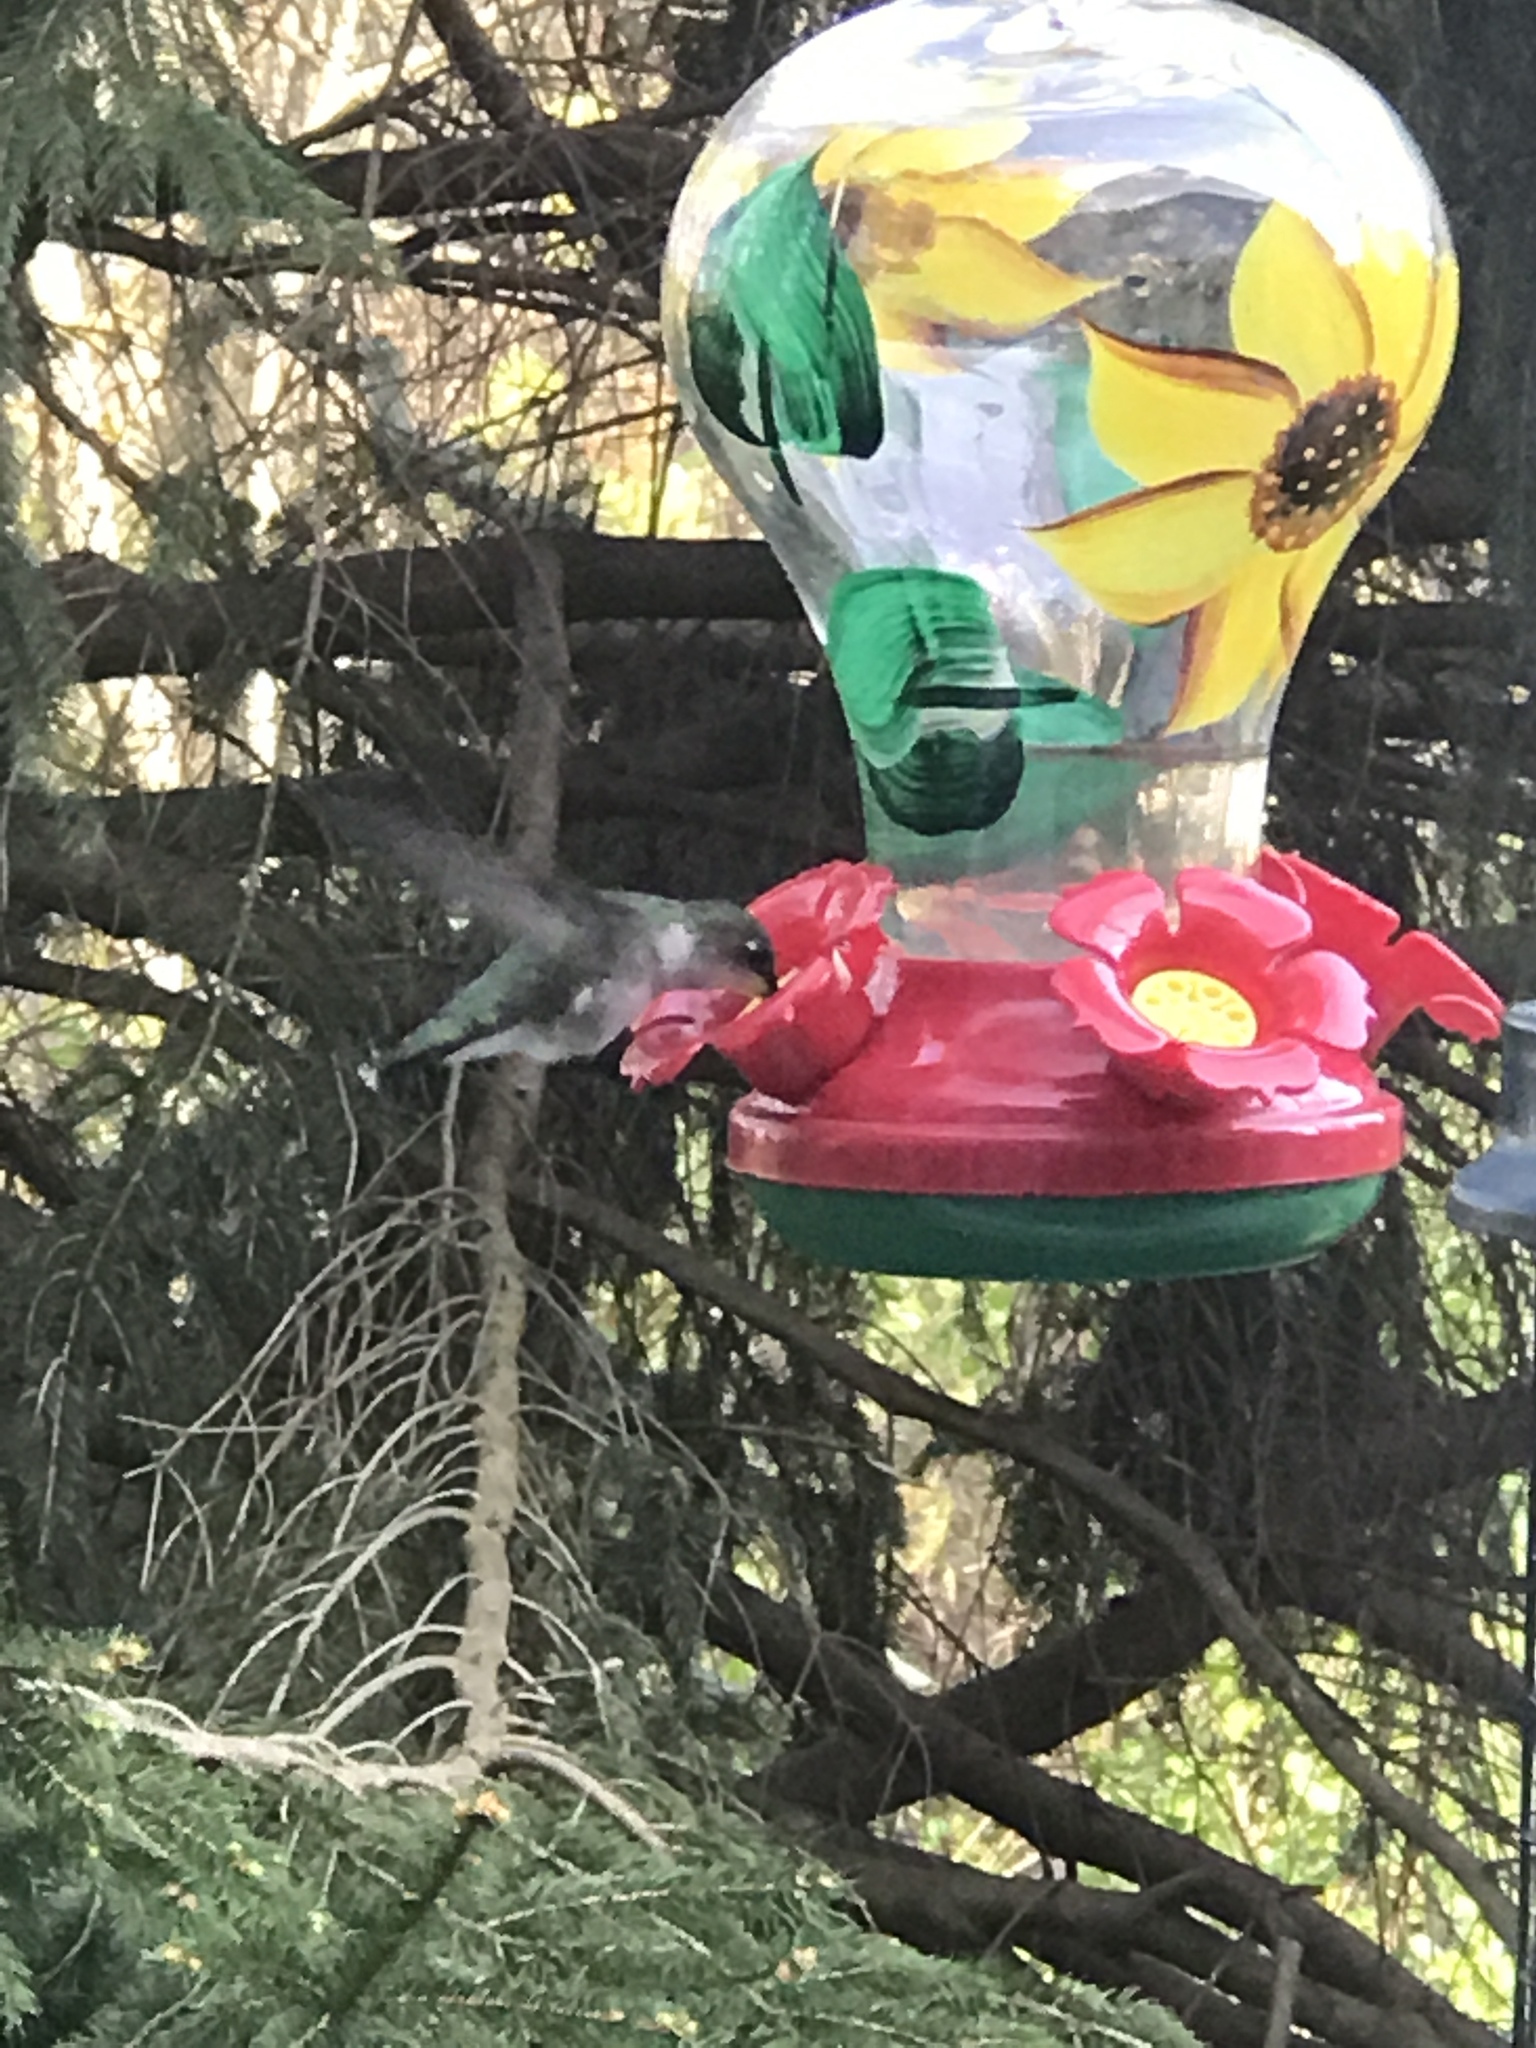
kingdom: Animalia
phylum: Chordata
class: Aves
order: Apodiformes
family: Trochilidae
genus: Archilochus
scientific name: Archilochus colubris
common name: Ruby-throated hummingbird
